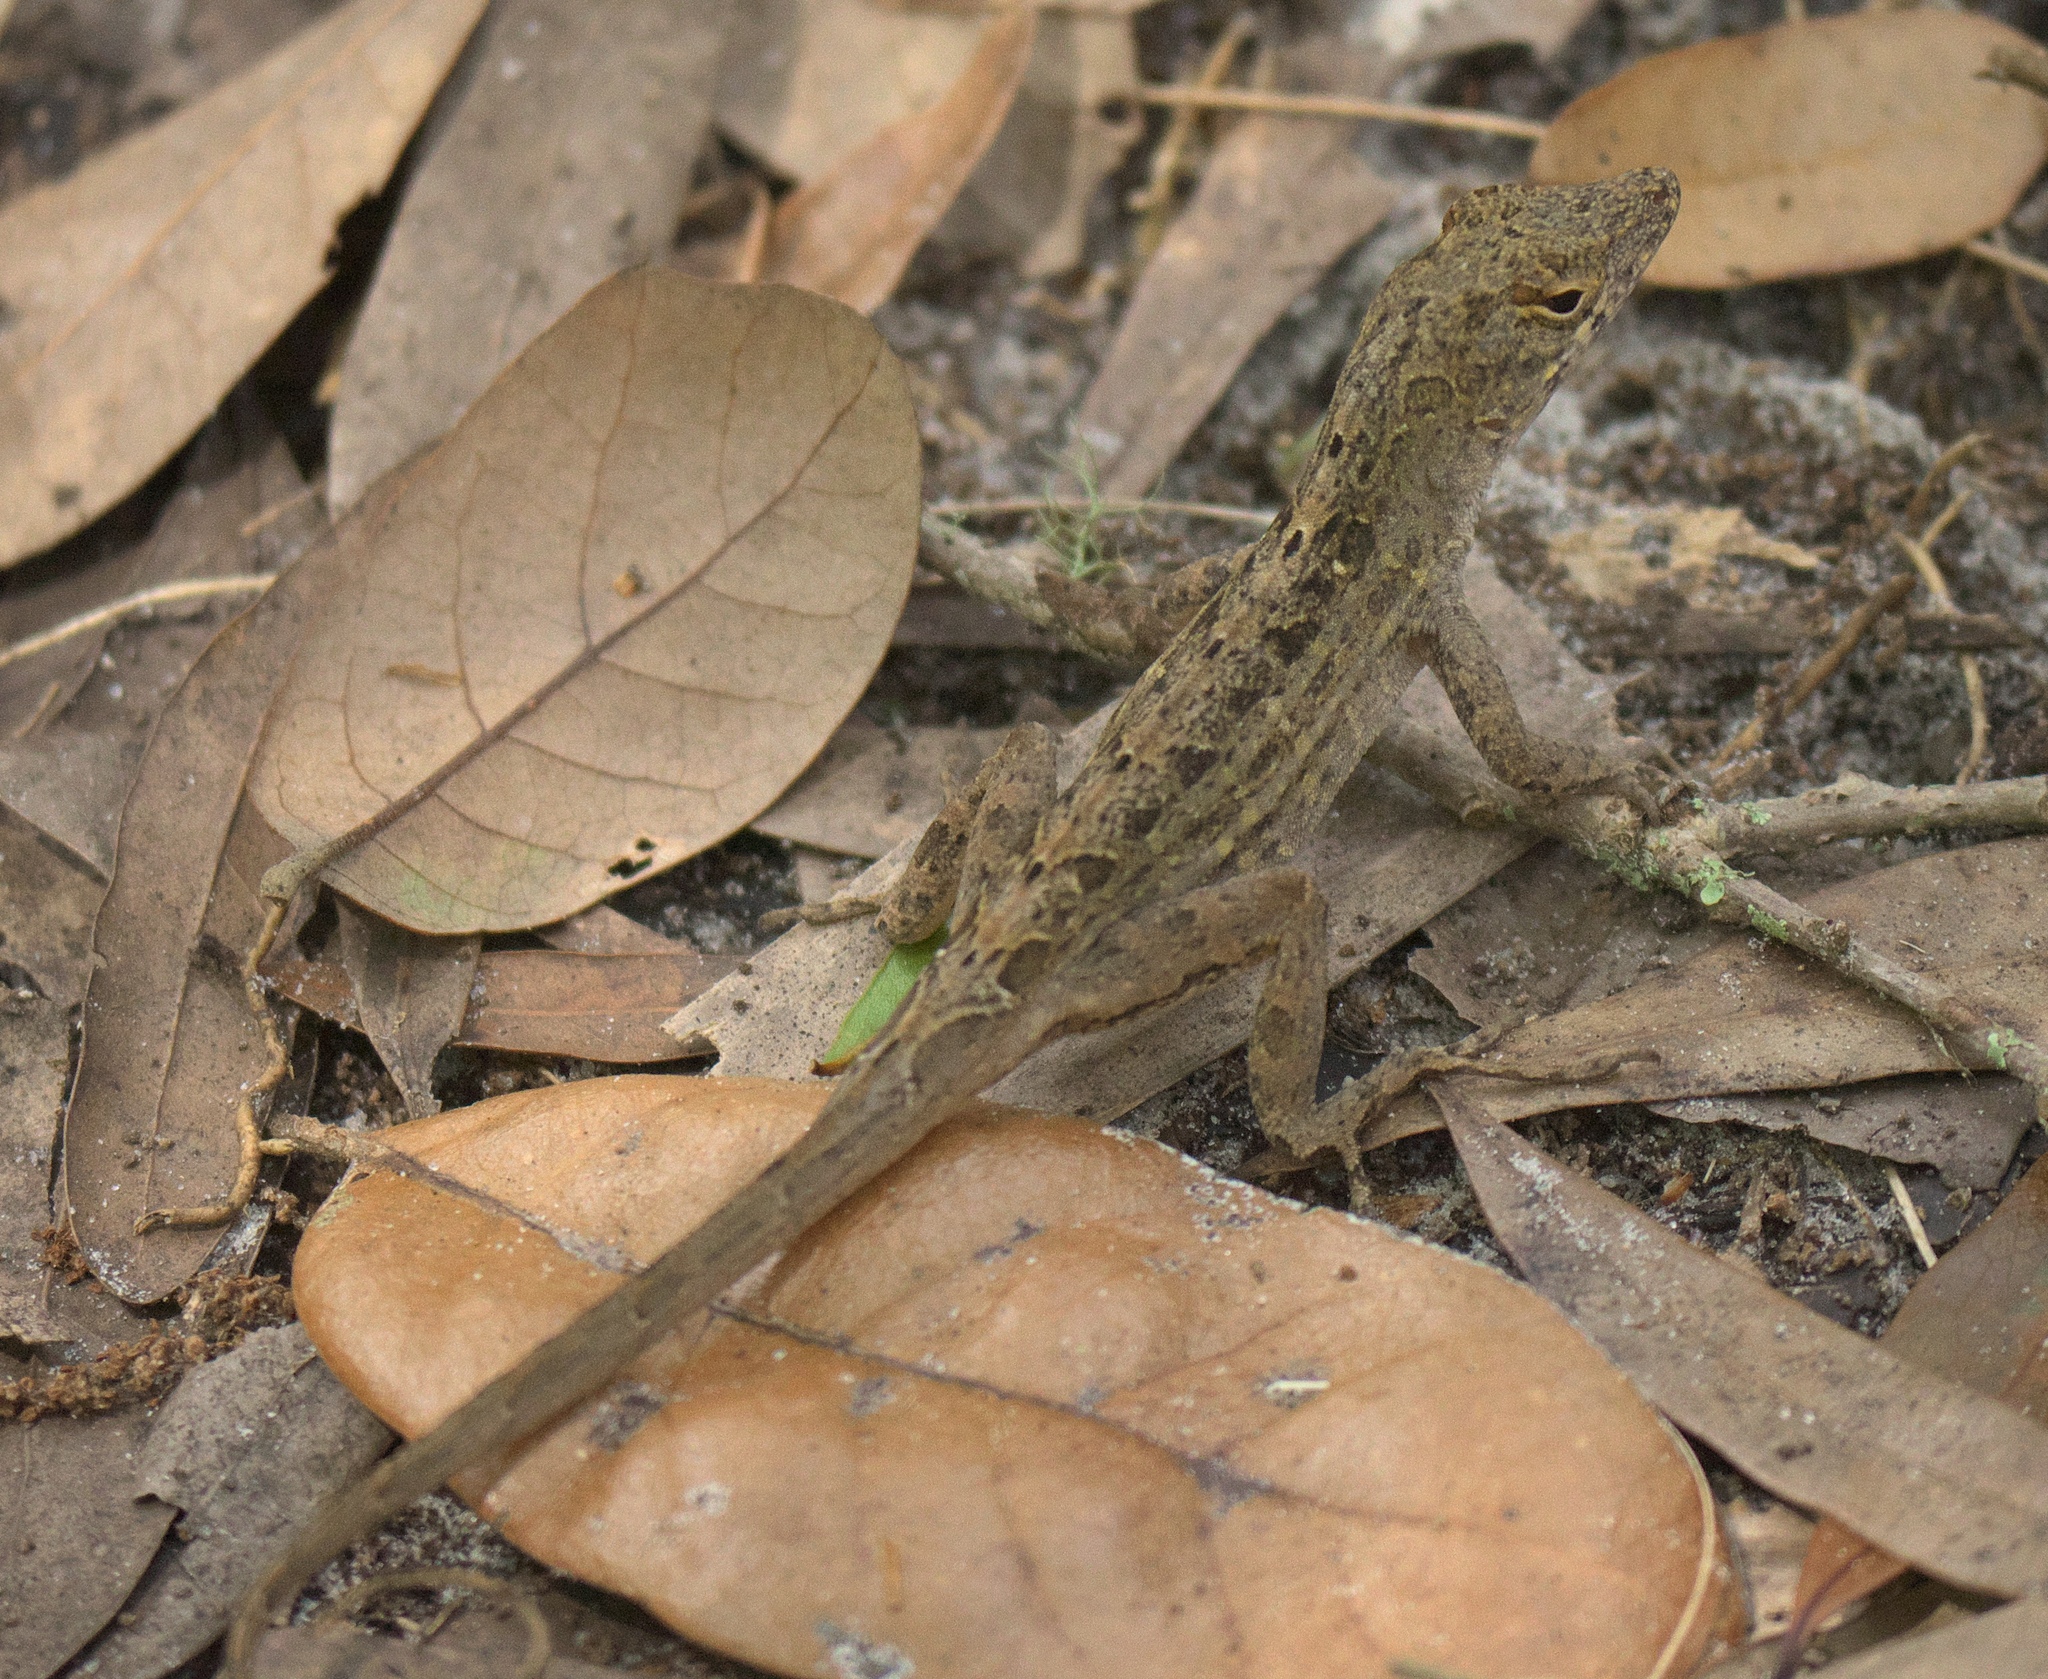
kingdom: Animalia
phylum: Chordata
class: Squamata
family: Dactyloidae
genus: Anolis
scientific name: Anolis sagrei
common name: Brown anole
